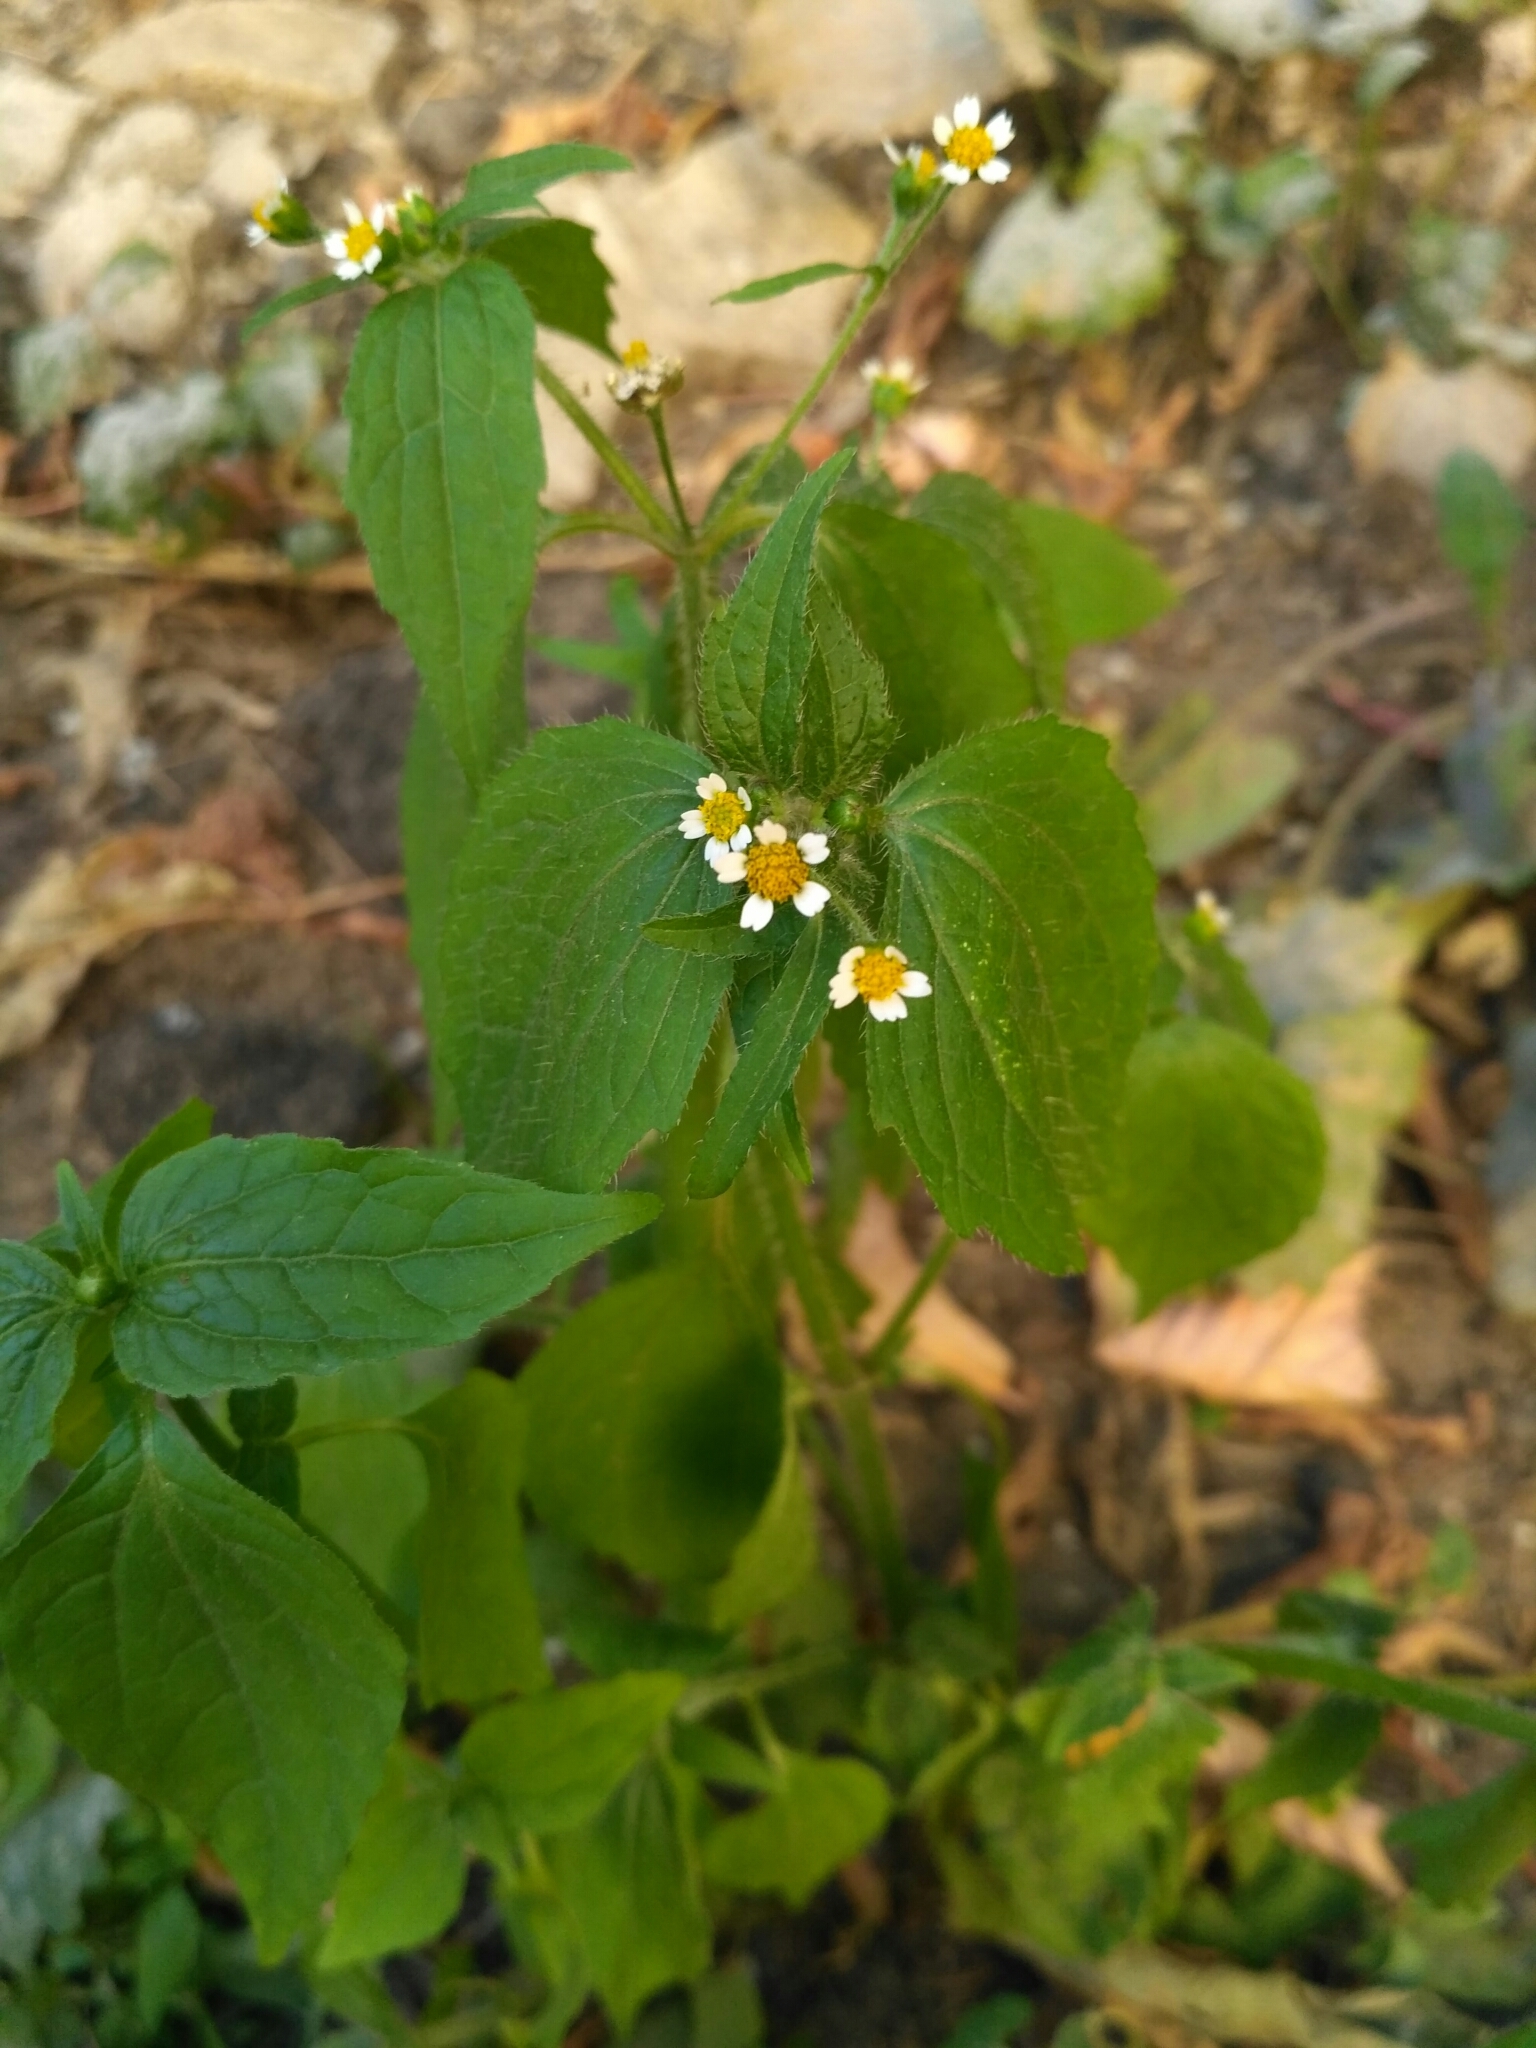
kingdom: Plantae
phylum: Tracheophyta
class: Magnoliopsida
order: Asterales
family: Asteraceae
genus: Galinsoga
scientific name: Galinsoga quadriradiata
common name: Shaggy soldier
